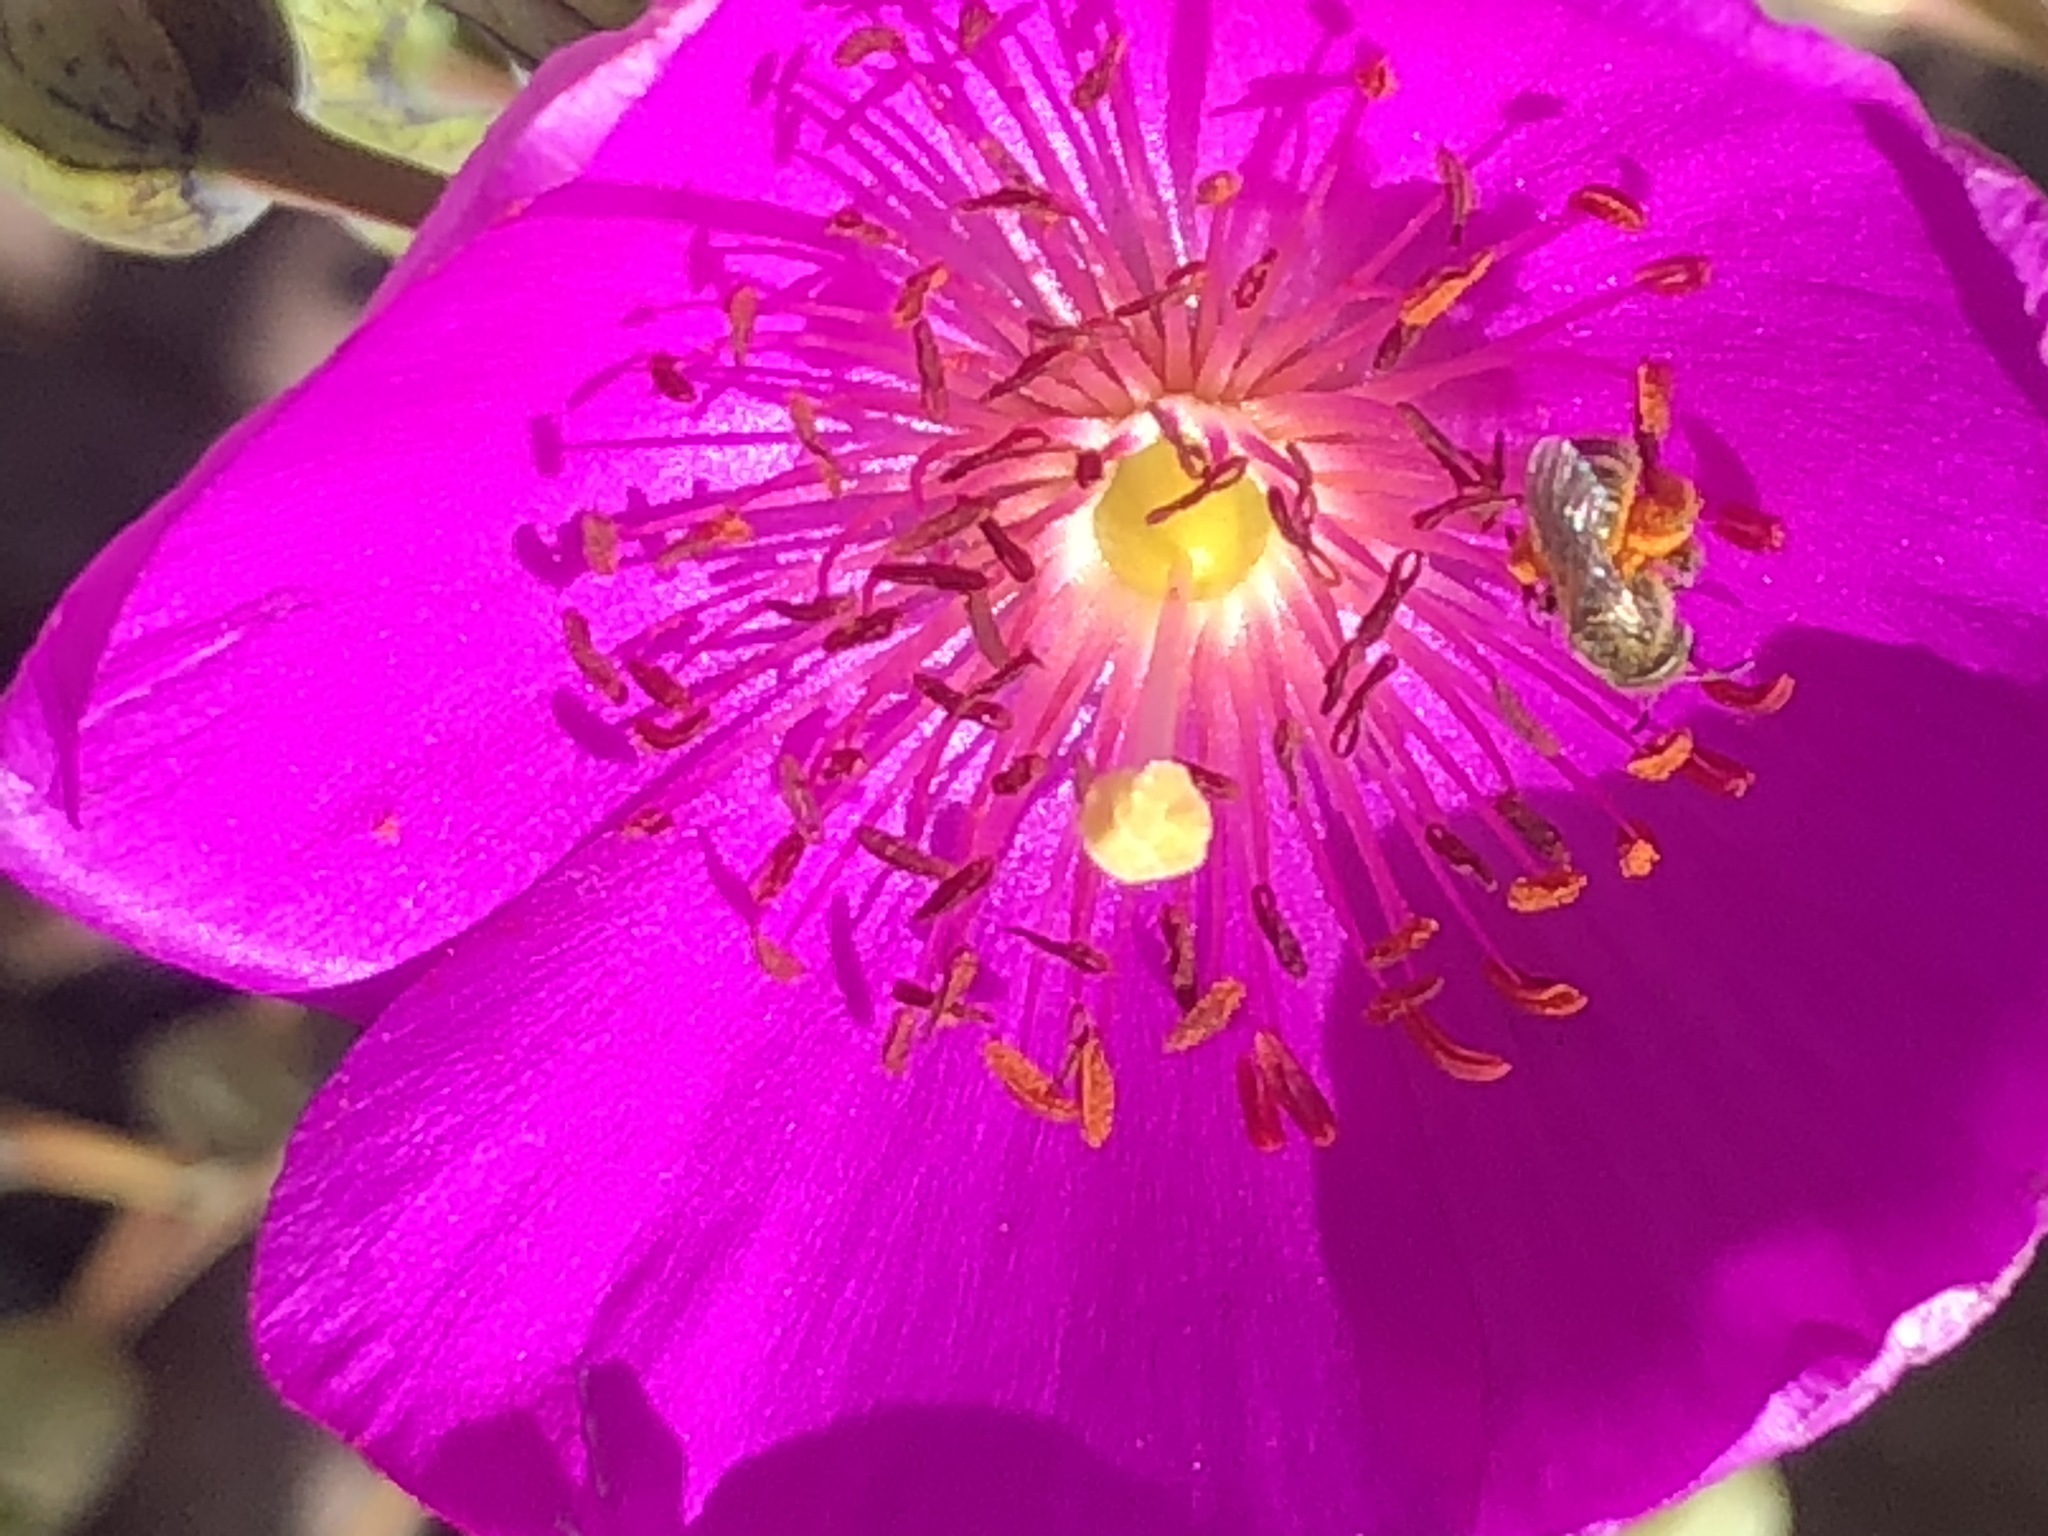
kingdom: Animalia
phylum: Arthropoda
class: Insecta
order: Hymenoptera
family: Halictidae
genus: Halictus
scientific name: Halictus tripartitus
